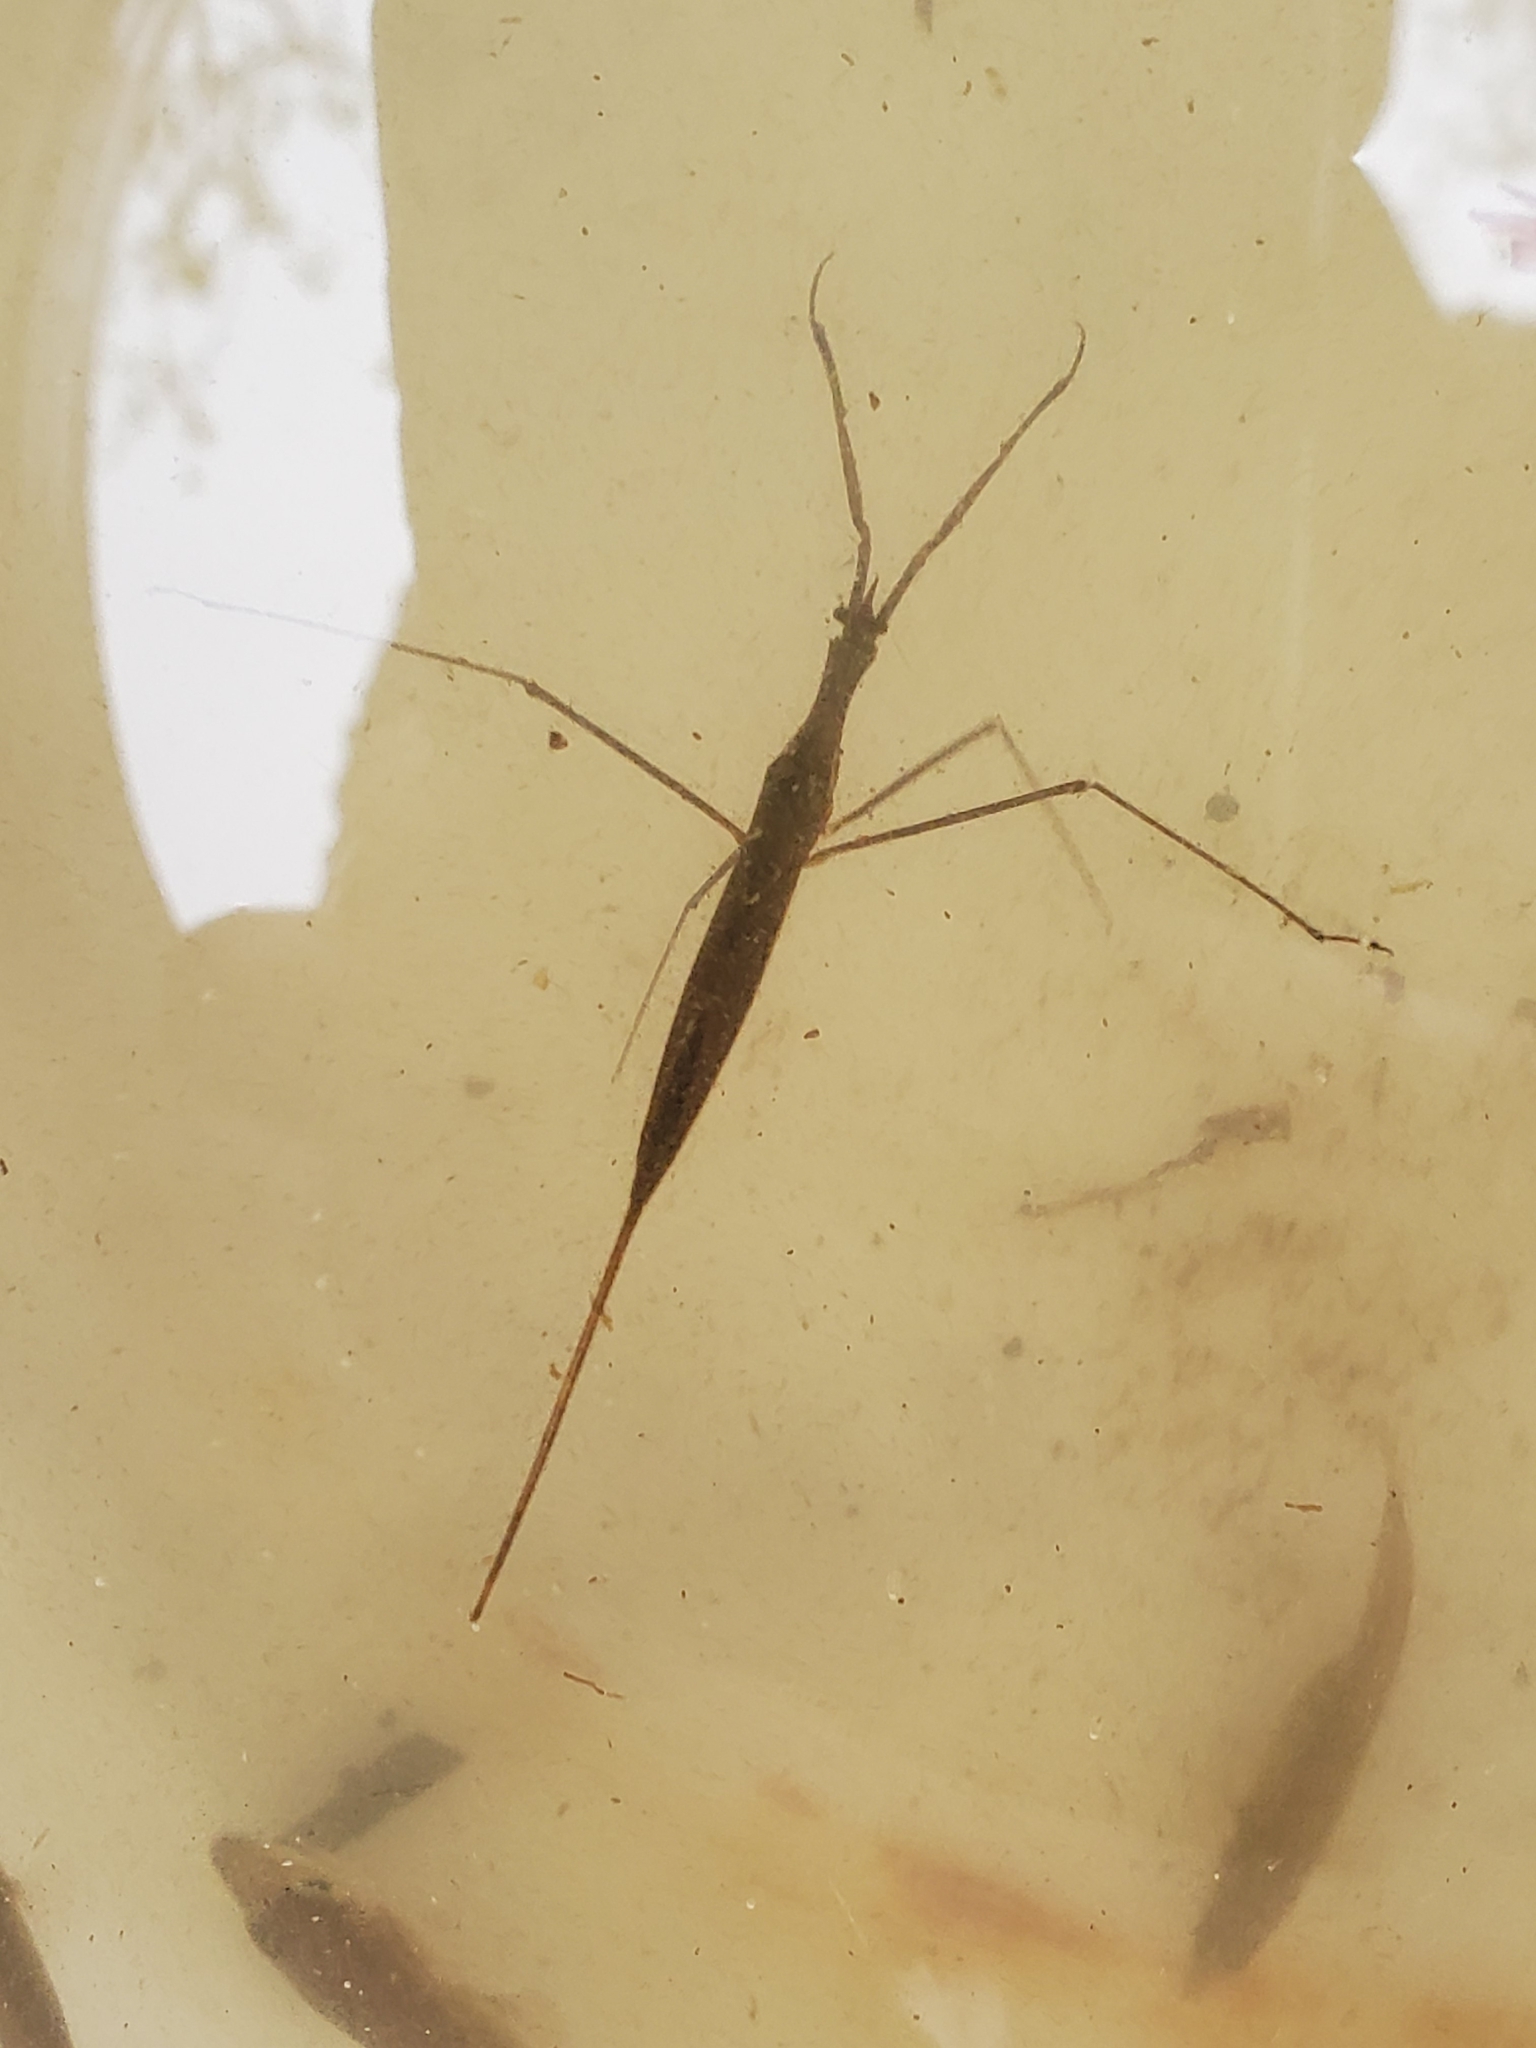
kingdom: Animalia
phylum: Arthropoda
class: Insecta
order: Hemiptera
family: Nepidae
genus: Ranatra
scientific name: Ranatra fusca
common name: Brown waterscorpion
